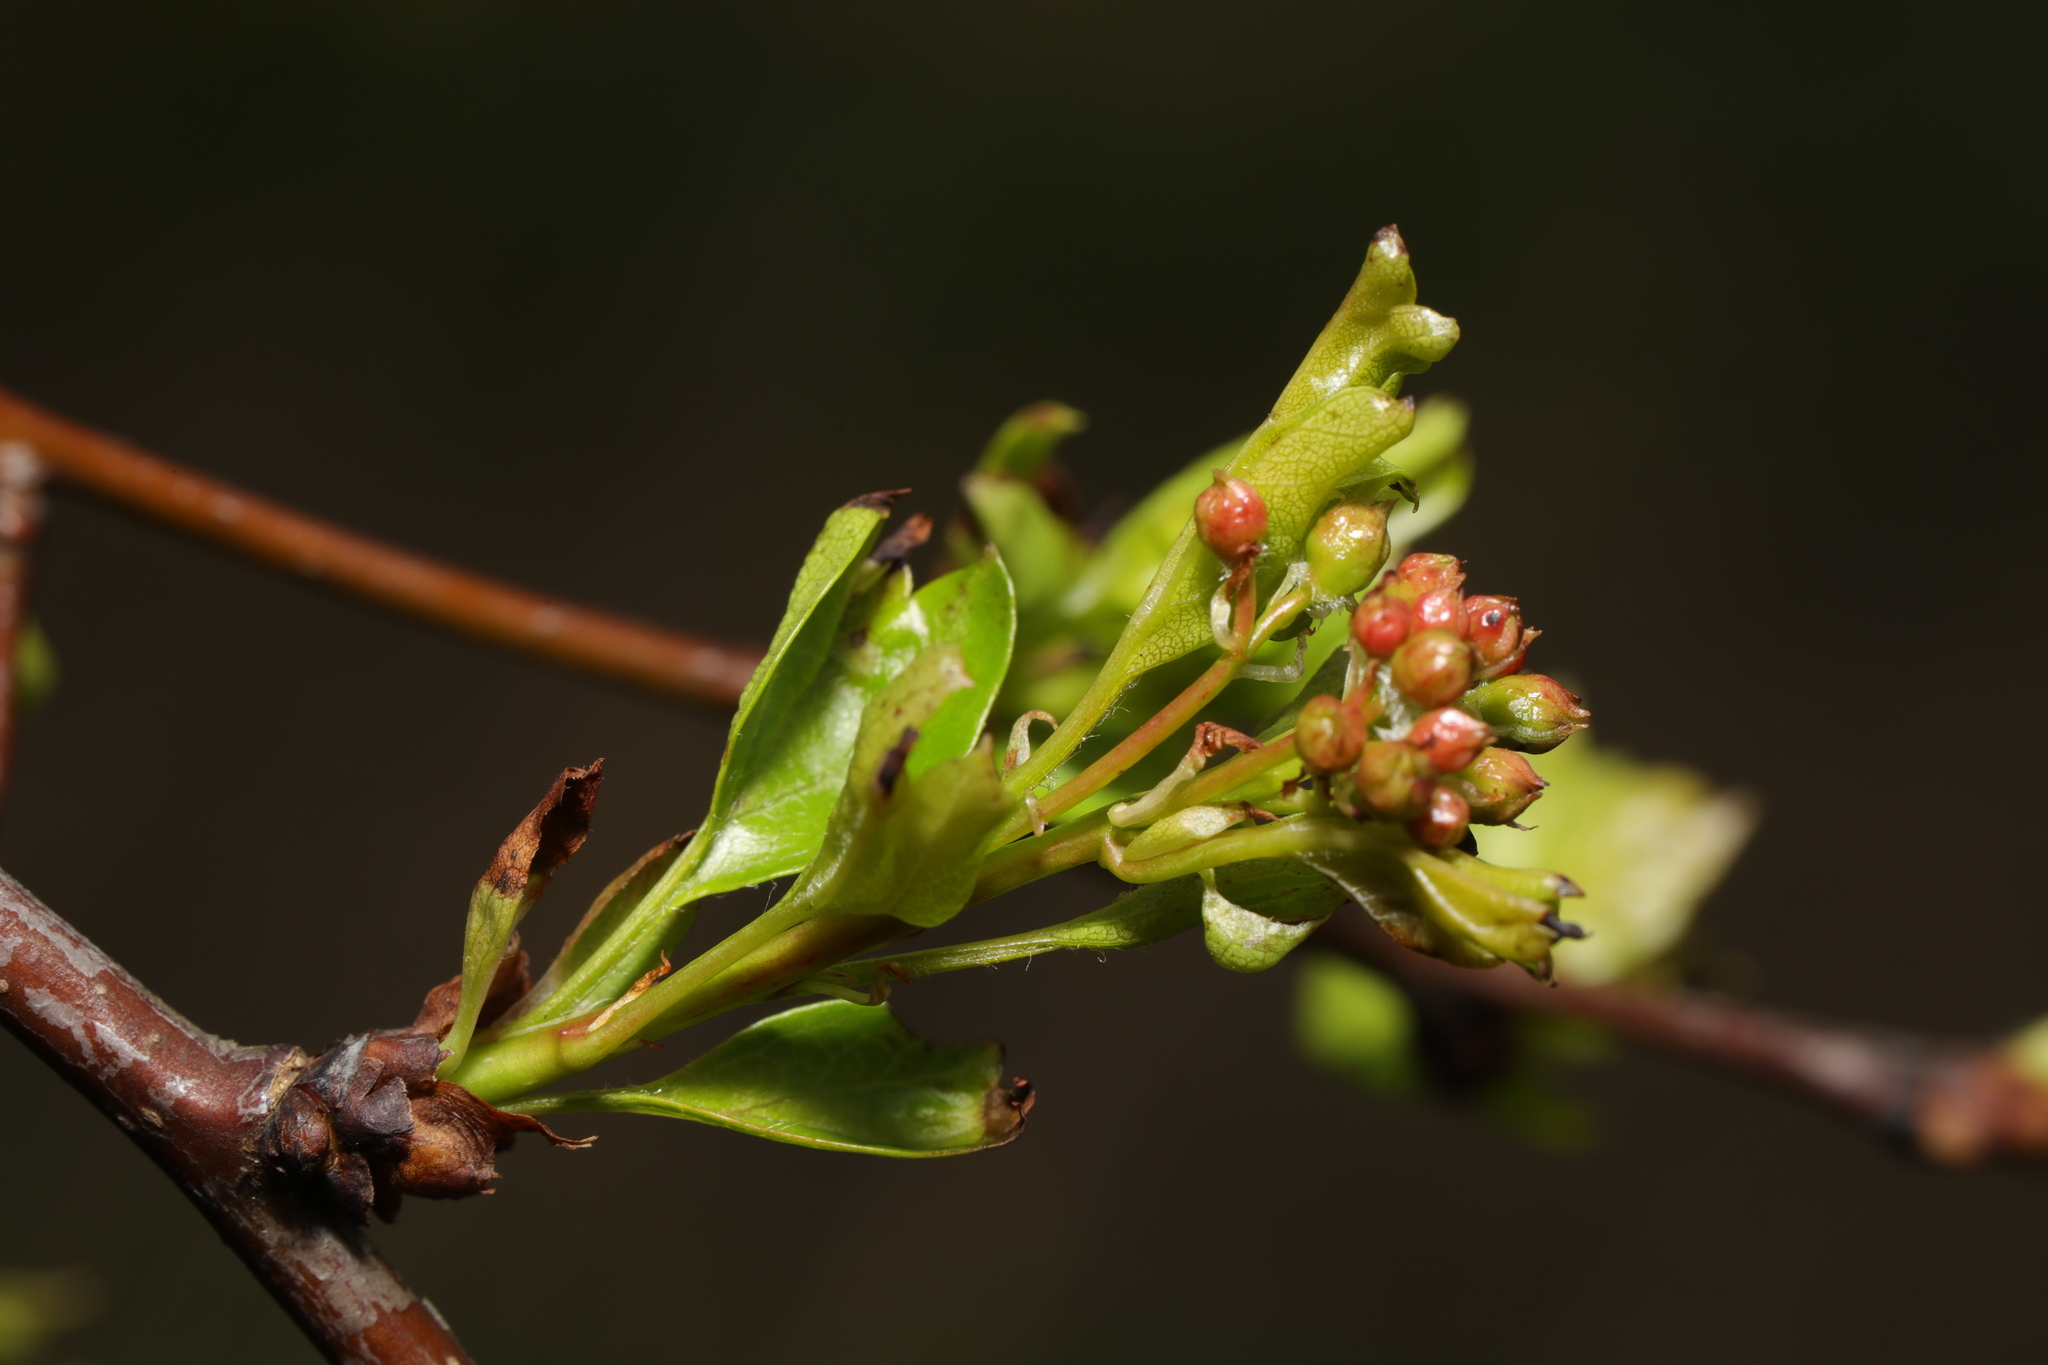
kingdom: Plantae
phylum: Tracheophyta
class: Magnoliopsida
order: Rosales
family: Rosaceae
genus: Crataegus
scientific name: Crataegus monogyna
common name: Hawthorn
